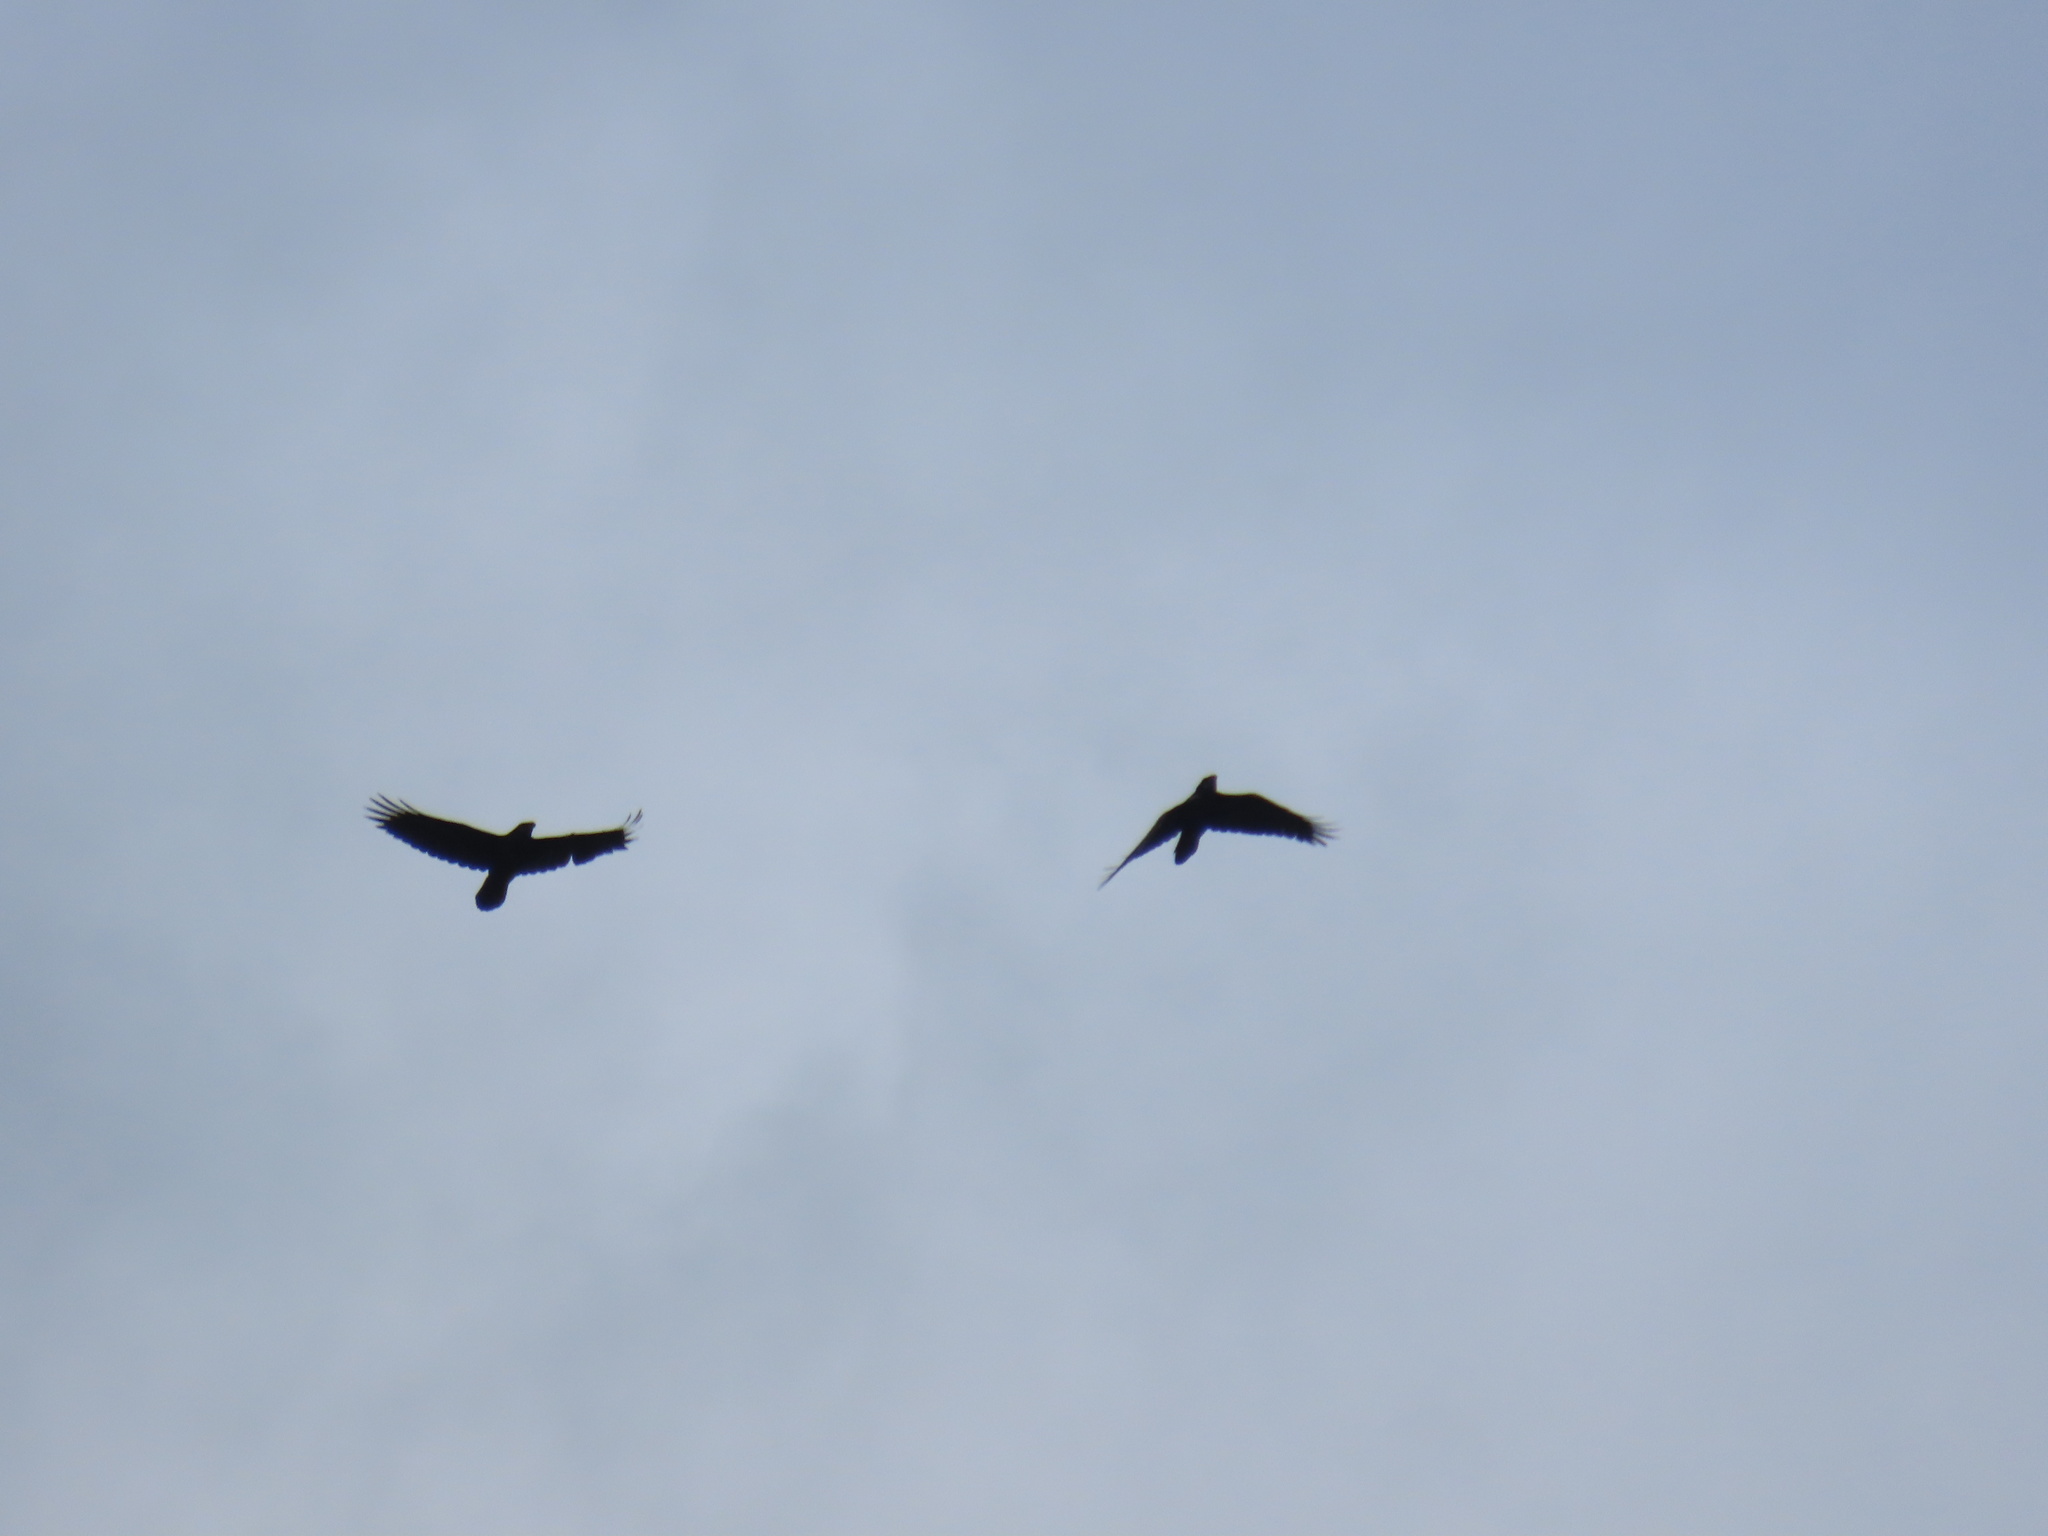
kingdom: Animalia
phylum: Chordata
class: Aves
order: Passeriformes
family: Corvidae
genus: Corvus
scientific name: Corvus corax
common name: Common raven
